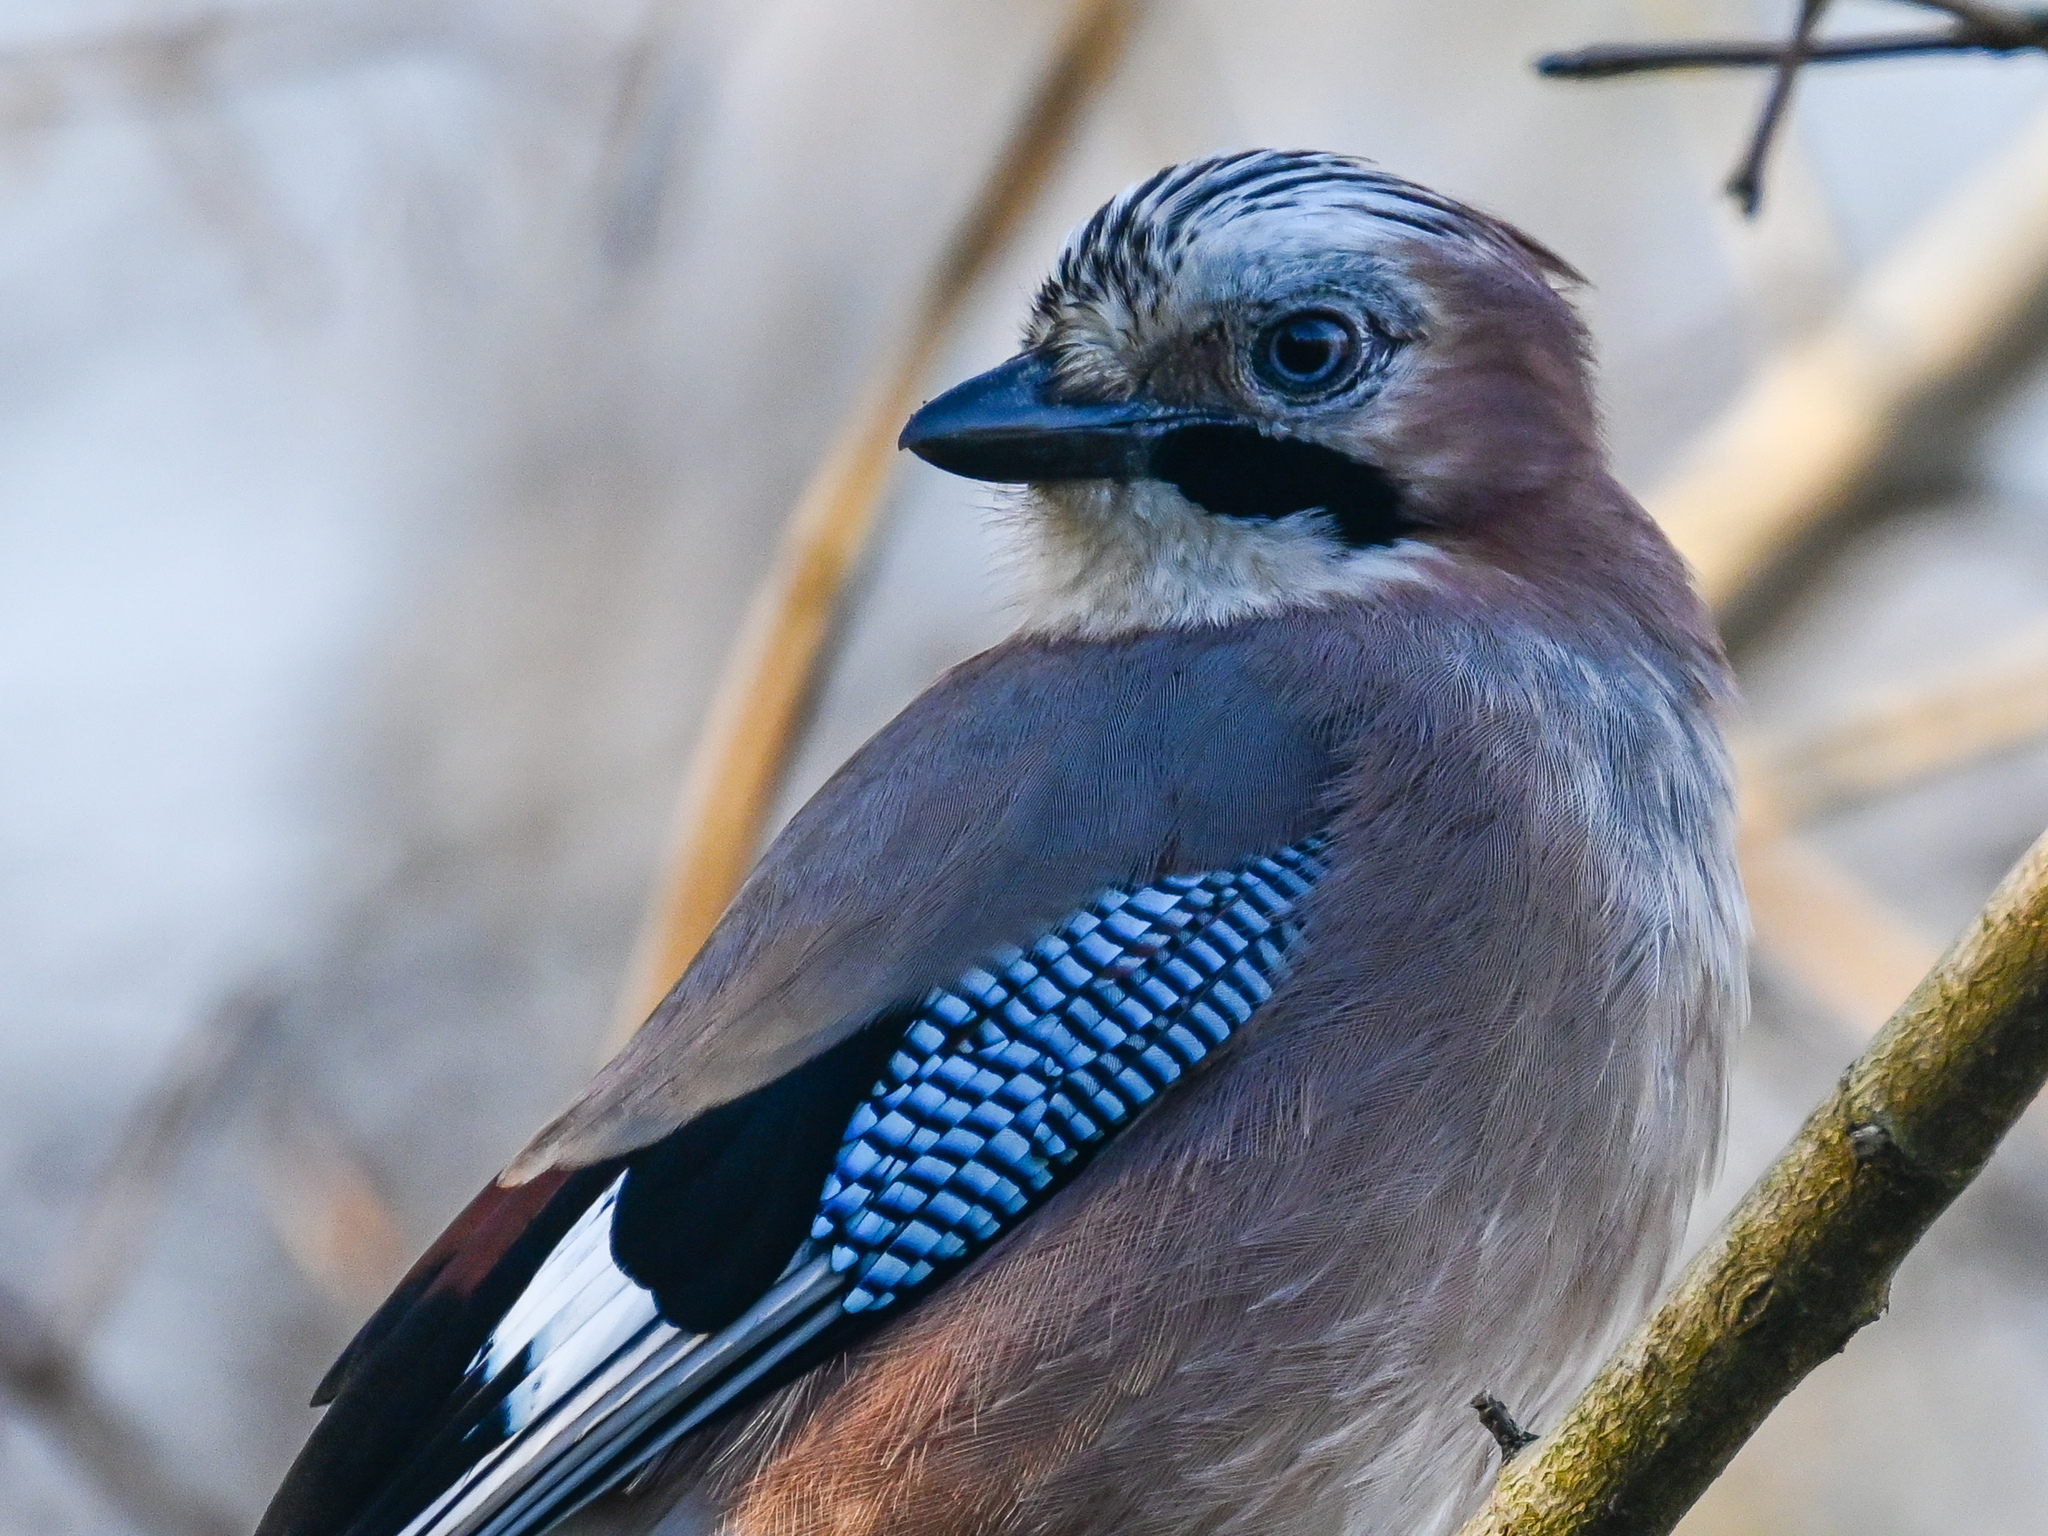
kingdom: Animalia
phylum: Chordata
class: Aves
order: Passeriformes
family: Corvidae
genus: Garrulus
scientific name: Garrulus glandarius
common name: Eurasian jay
